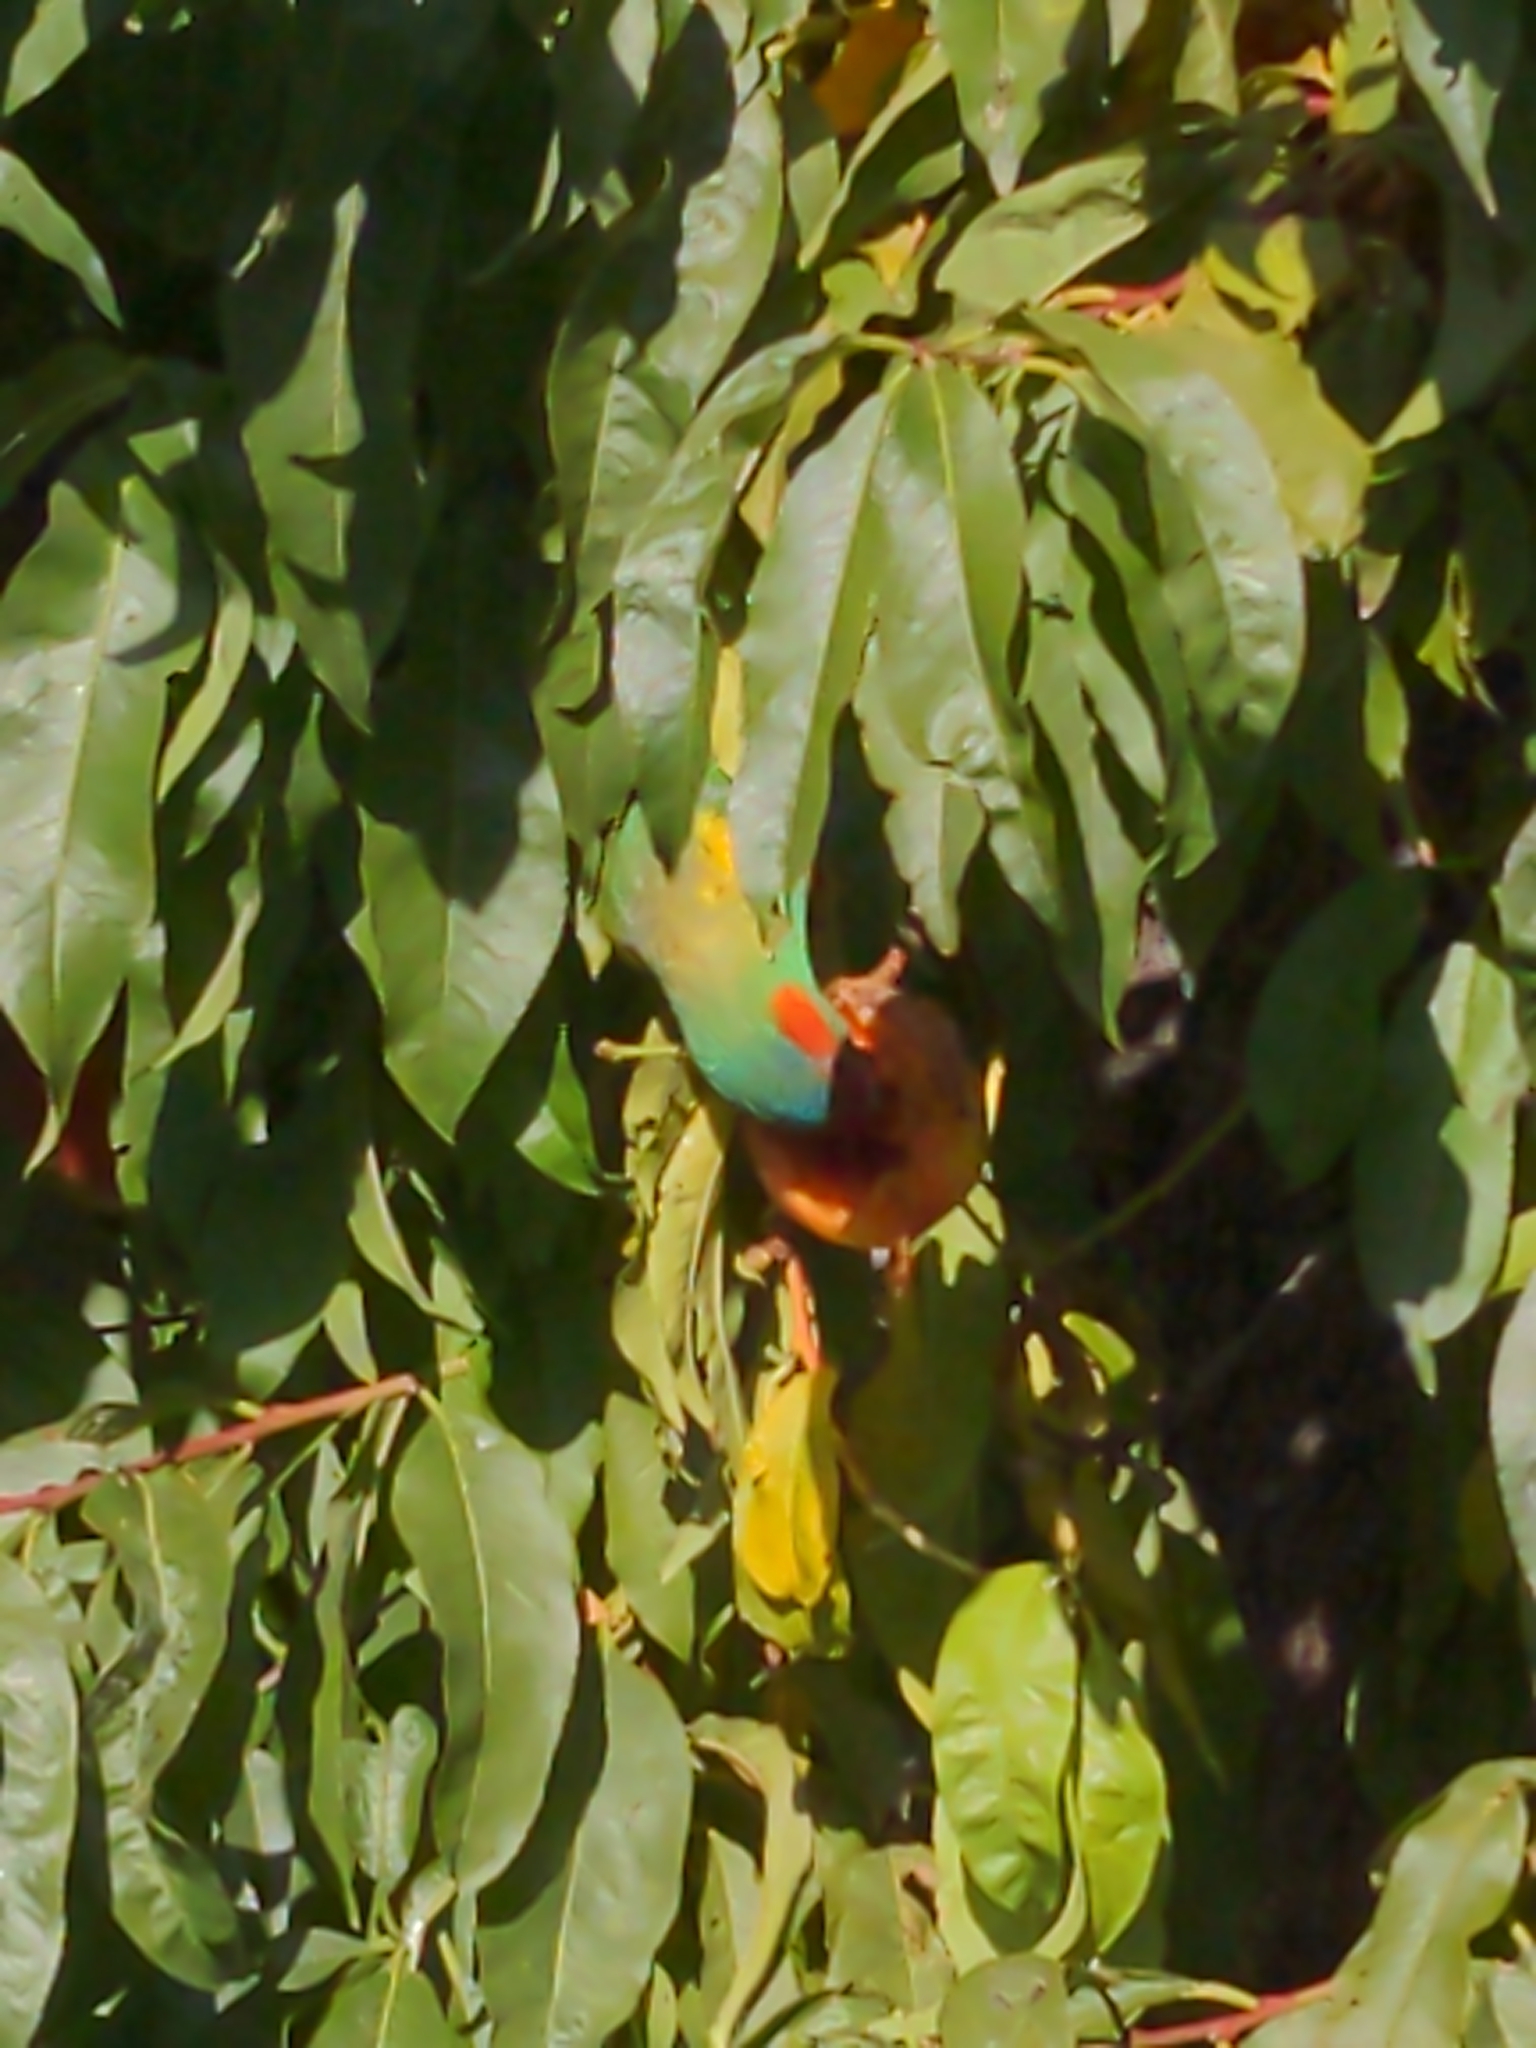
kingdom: Animalia
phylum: Chordata
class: Aves
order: Psittaciformes
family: Psittacidae
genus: Glossopsitta
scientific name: Glossopsitta concinna
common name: Musk lorikeet
